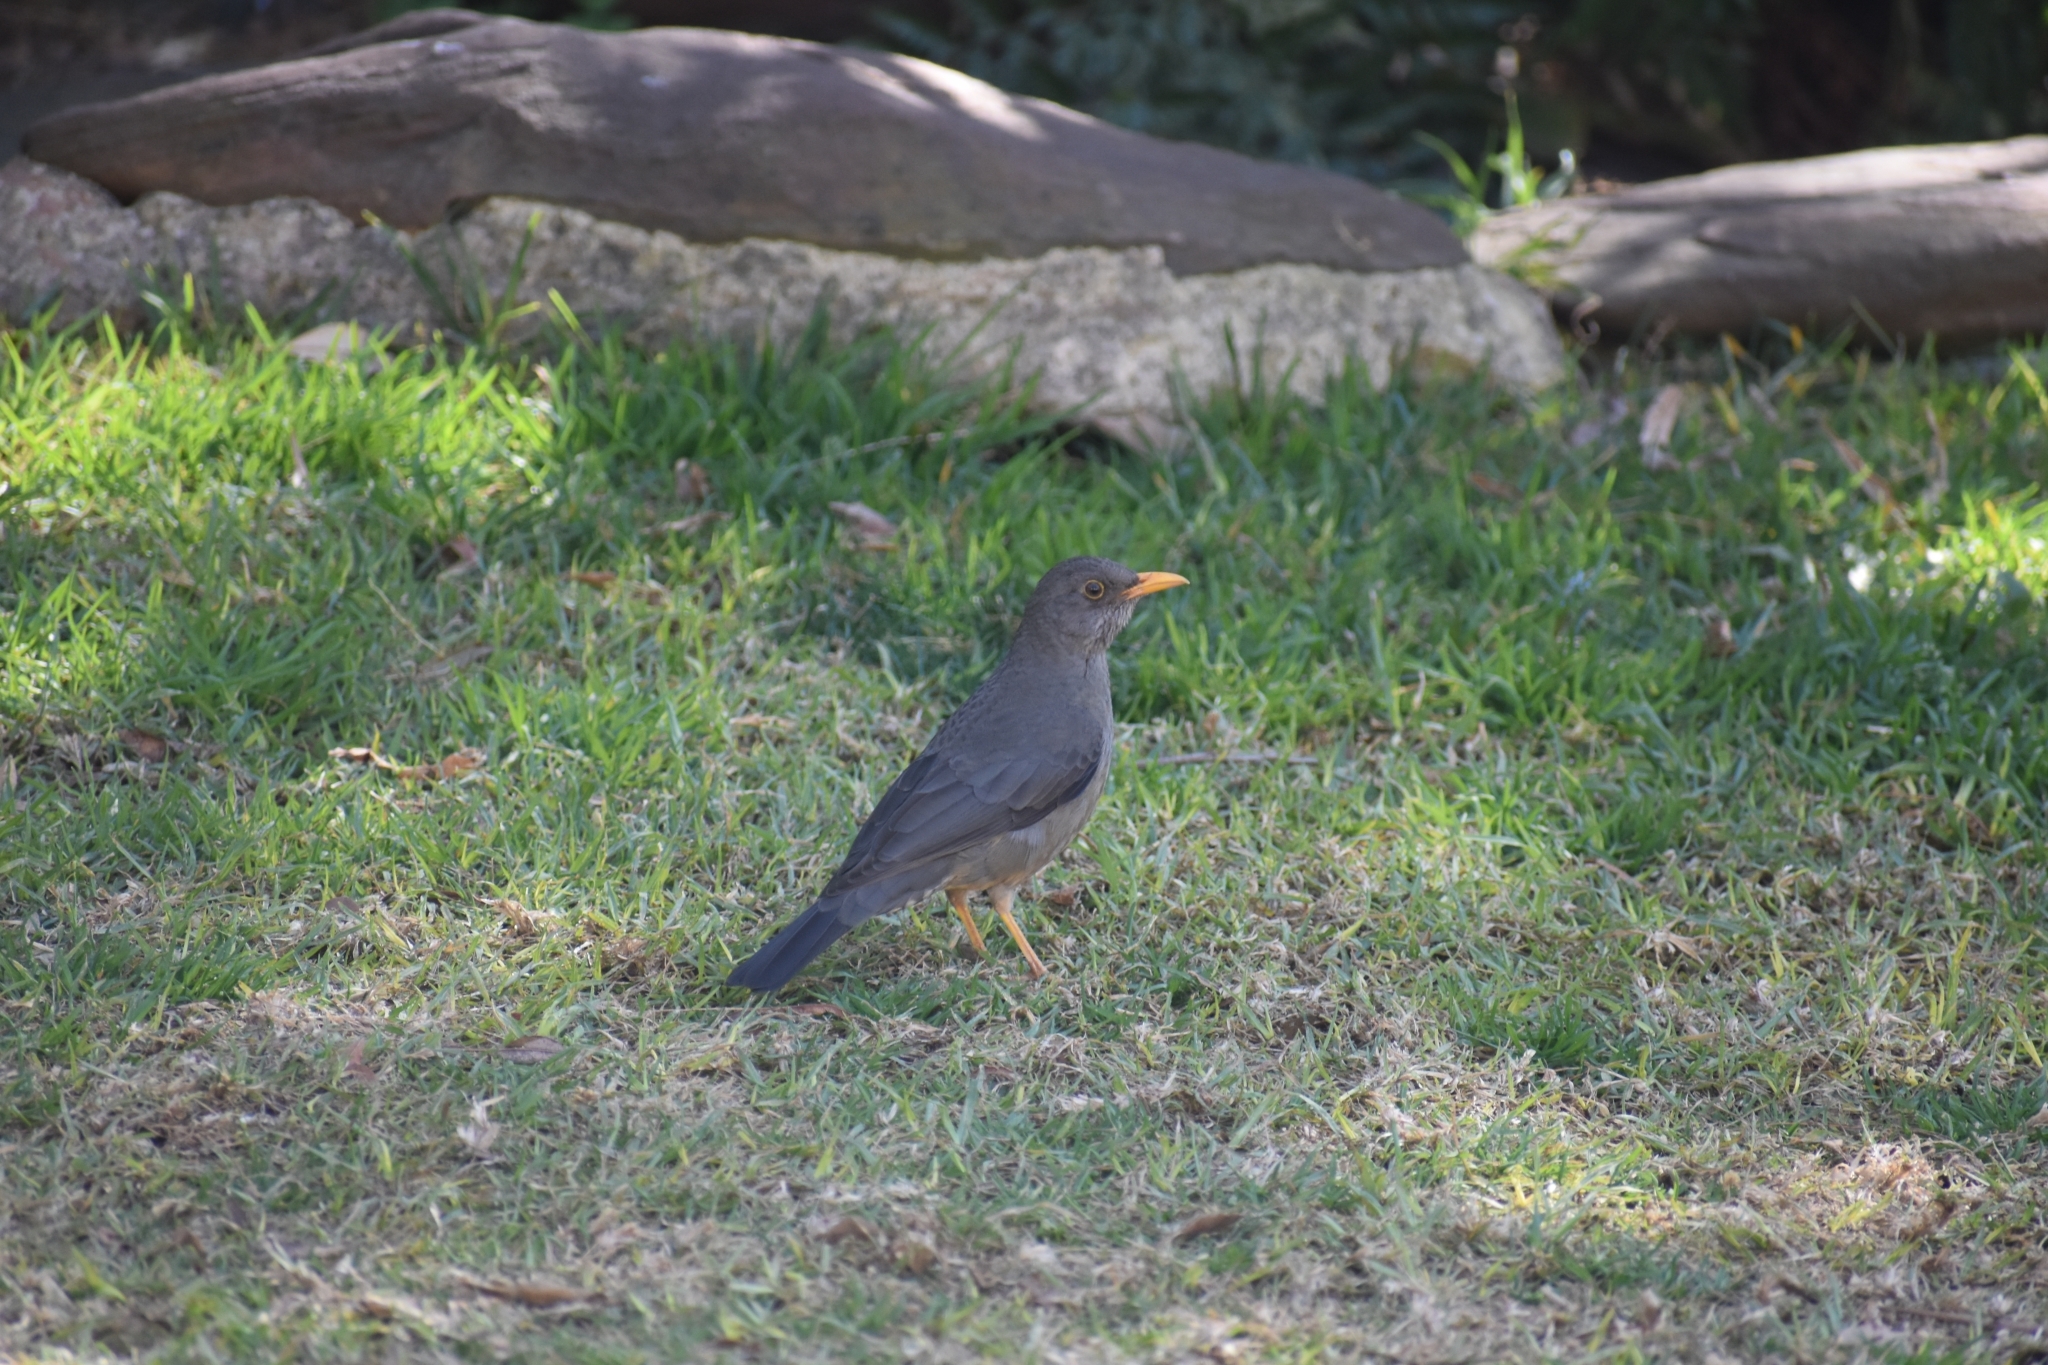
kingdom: Animalia
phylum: Chordata
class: Aves
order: Passeriformes
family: Turdidae
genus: Turdus
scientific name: Turdus smithi
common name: Karoo thrush
